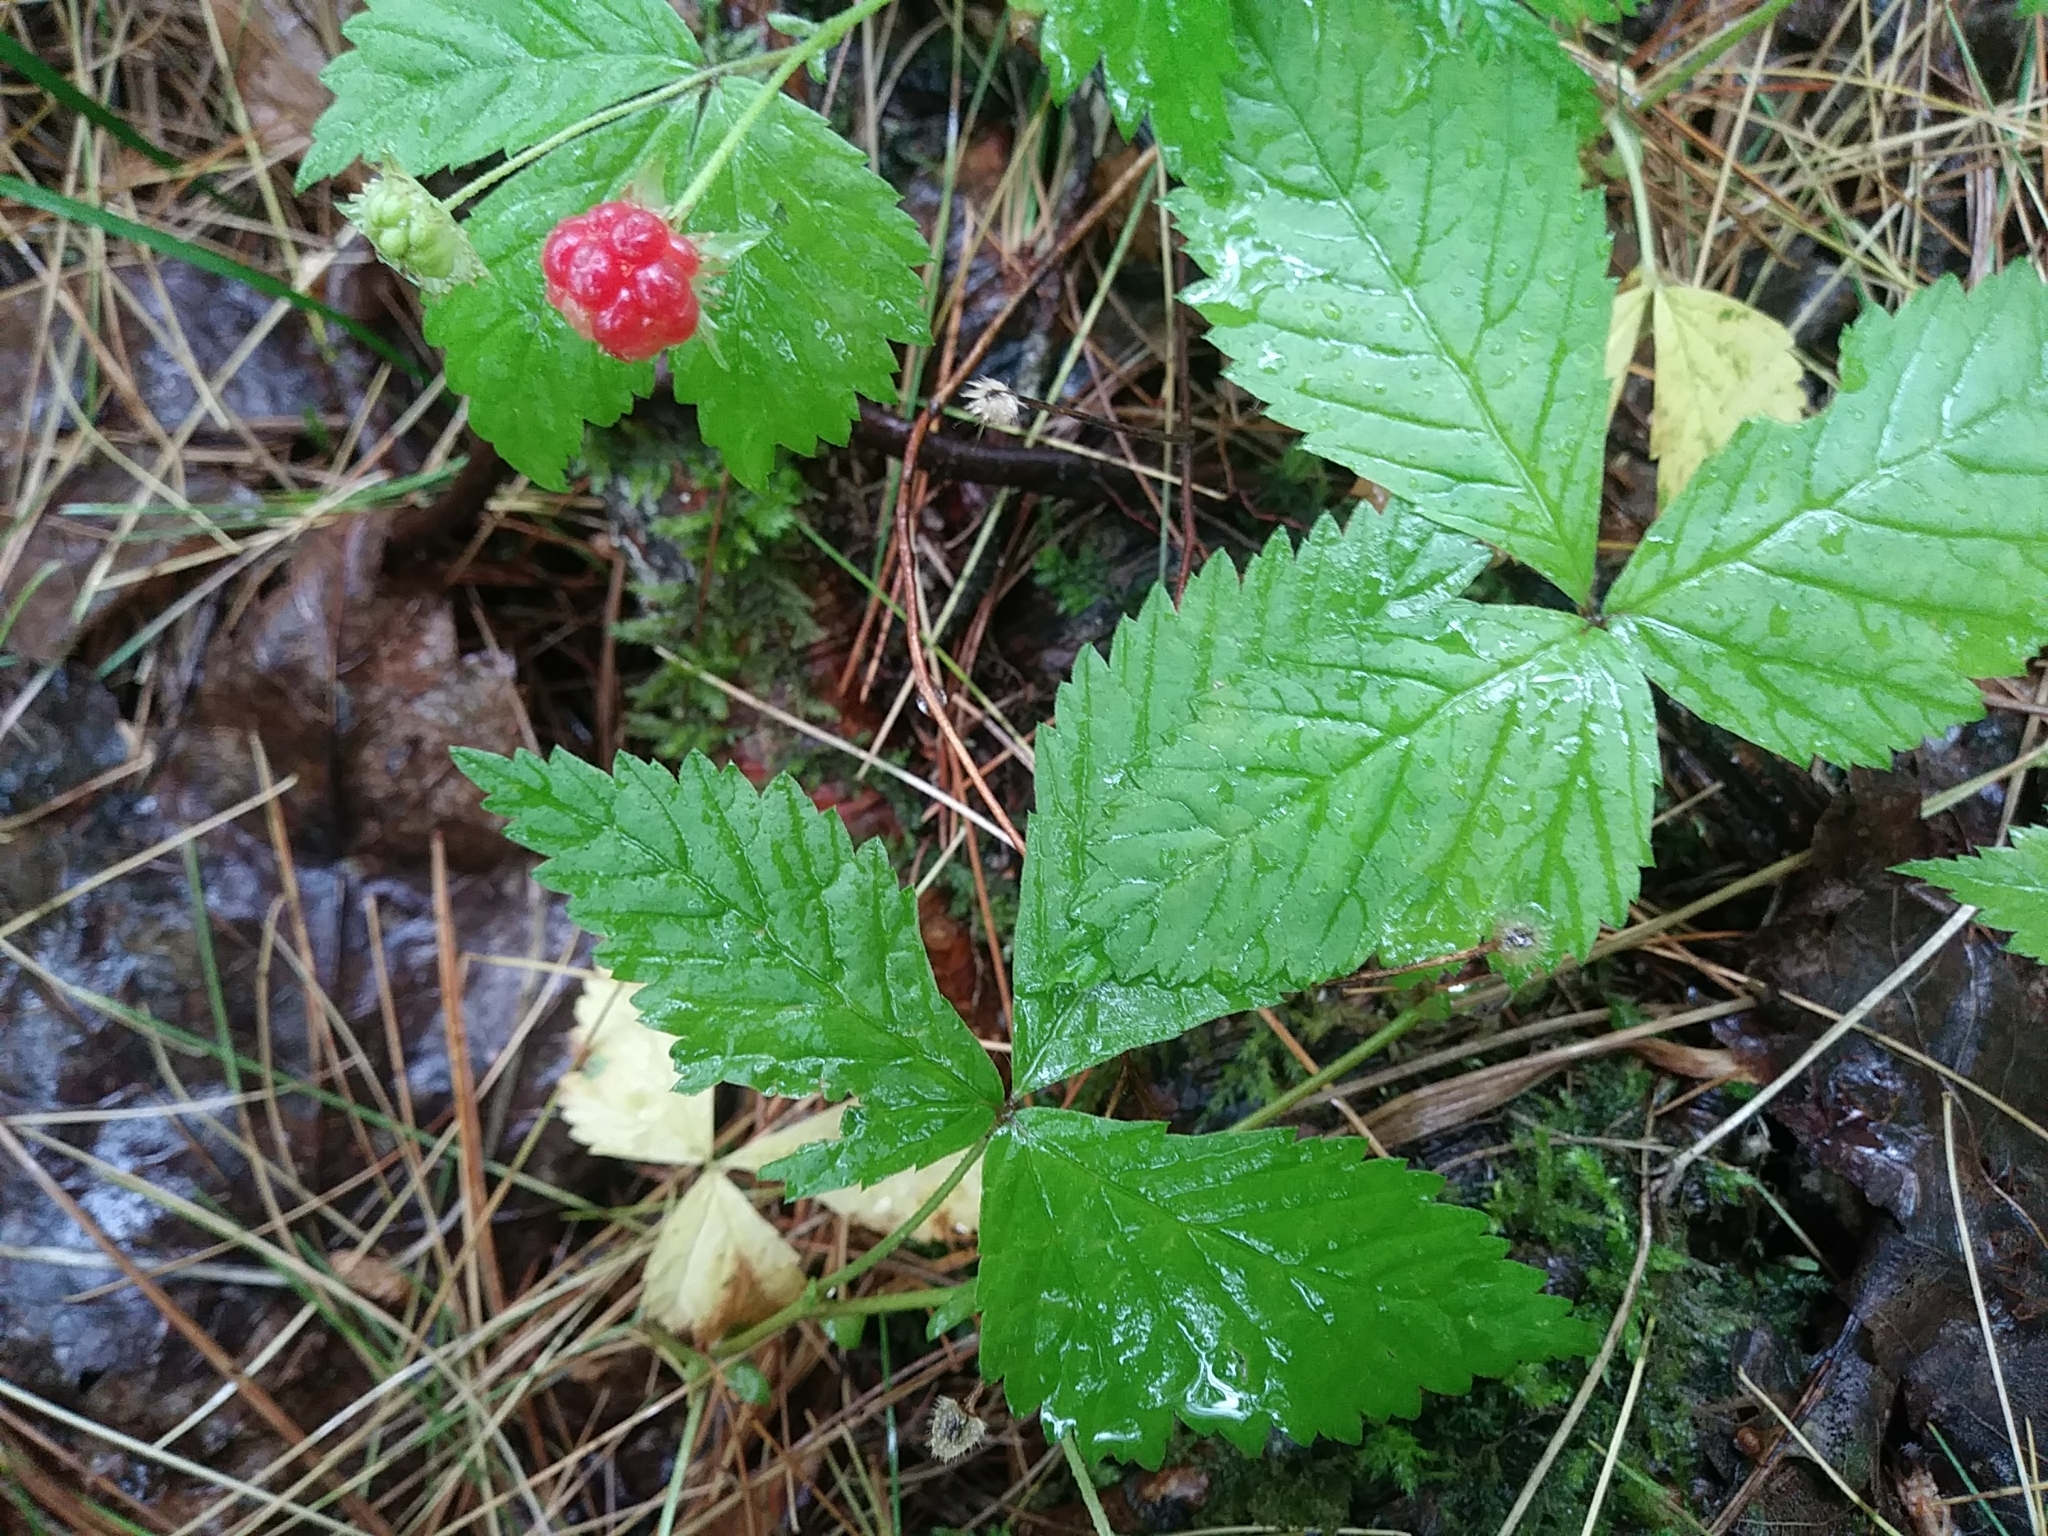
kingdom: Plantae
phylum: Tracheophyta
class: Magnoliopsida
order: Rosales
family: Rosaceae
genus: Rubus
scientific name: Rubus pubescens
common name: Dwarf raspberry
